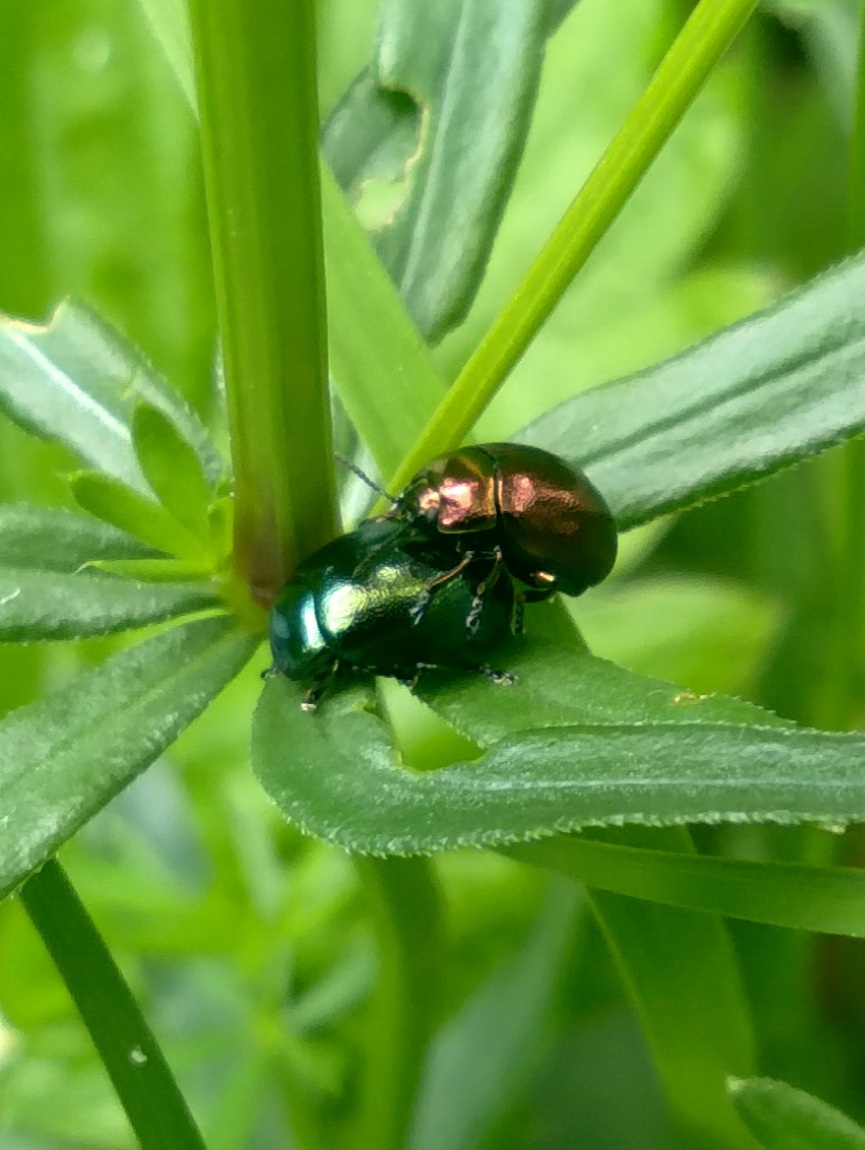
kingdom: Animalia
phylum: Arthropoda
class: Insecta
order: Coleoptera
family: Chrysomelidae
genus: Chrysolina
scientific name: Chrysolina varians
